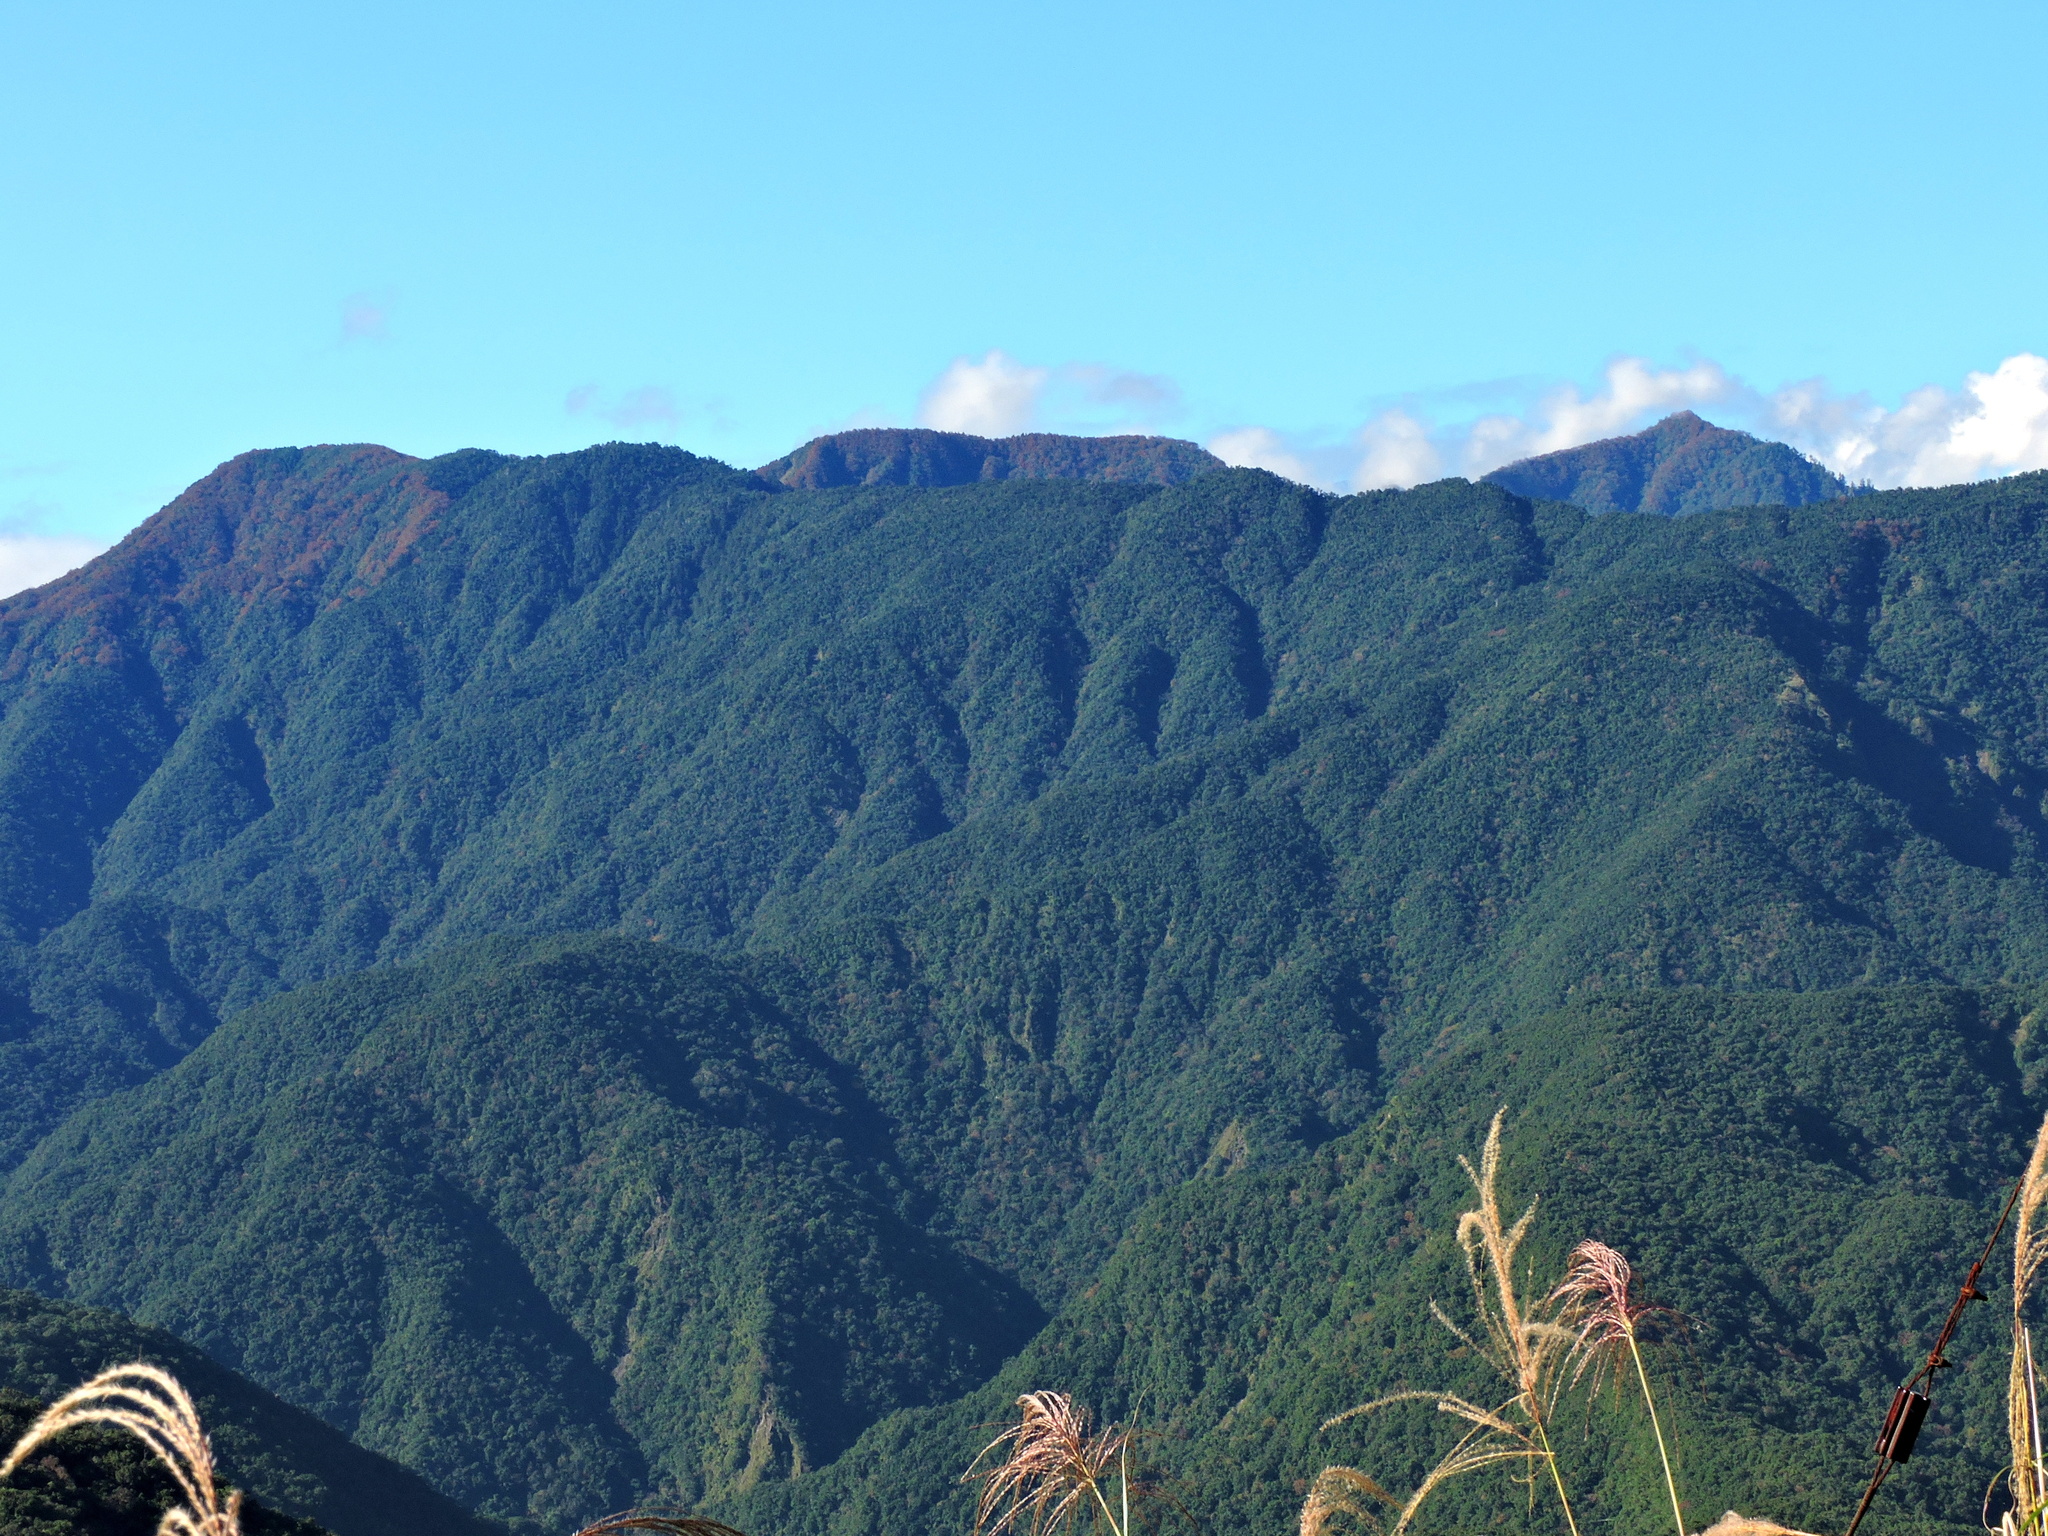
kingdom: Plantae
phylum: Tracheophyta
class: Magnoliopsida
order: Fagales
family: Fagaceae
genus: Fagus
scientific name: Fagus hayatae
